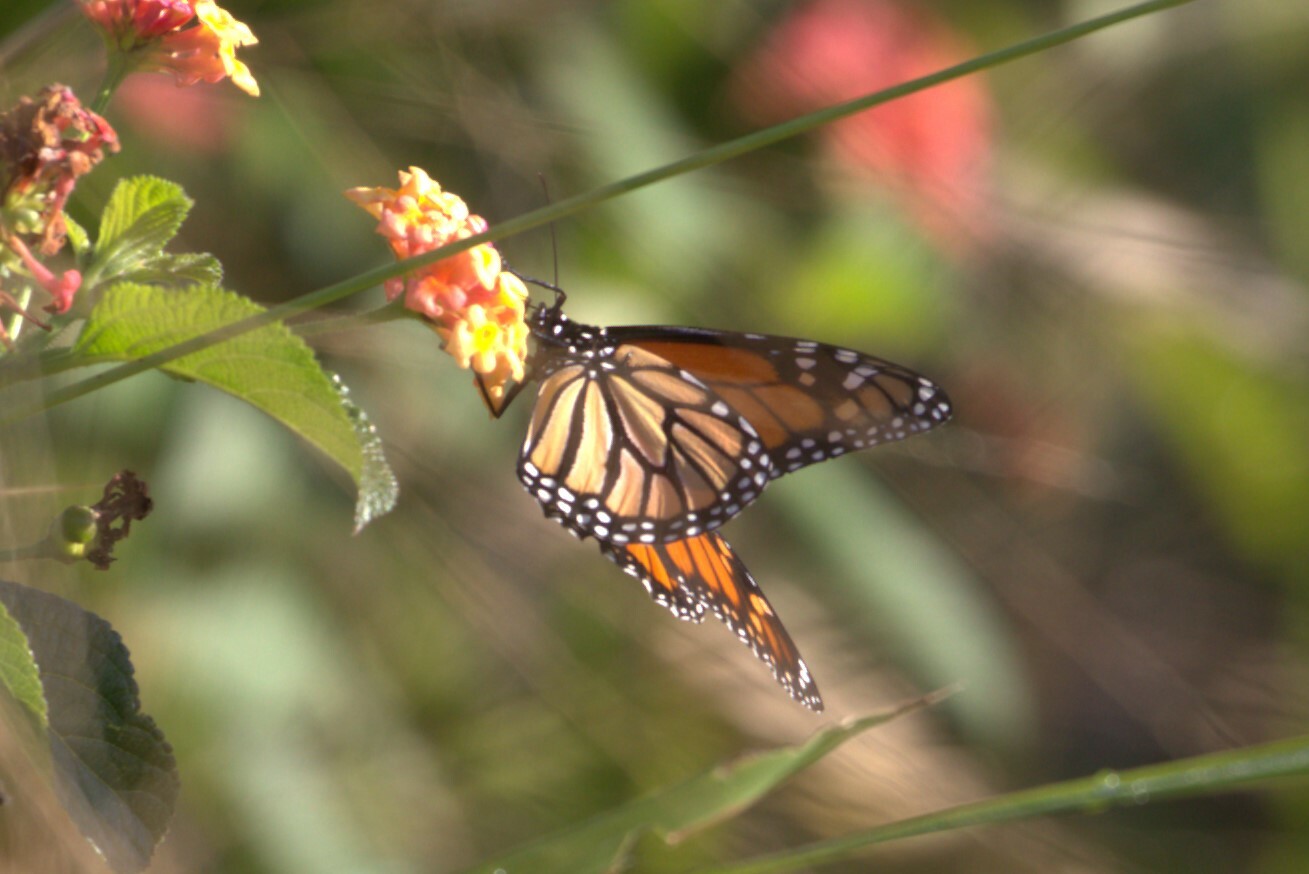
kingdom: Animalia
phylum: Arthropoda
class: Insecta
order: Lepidoptera
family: Nymphalidae
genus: Danaus
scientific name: Danaus plexippus
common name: Monarch
